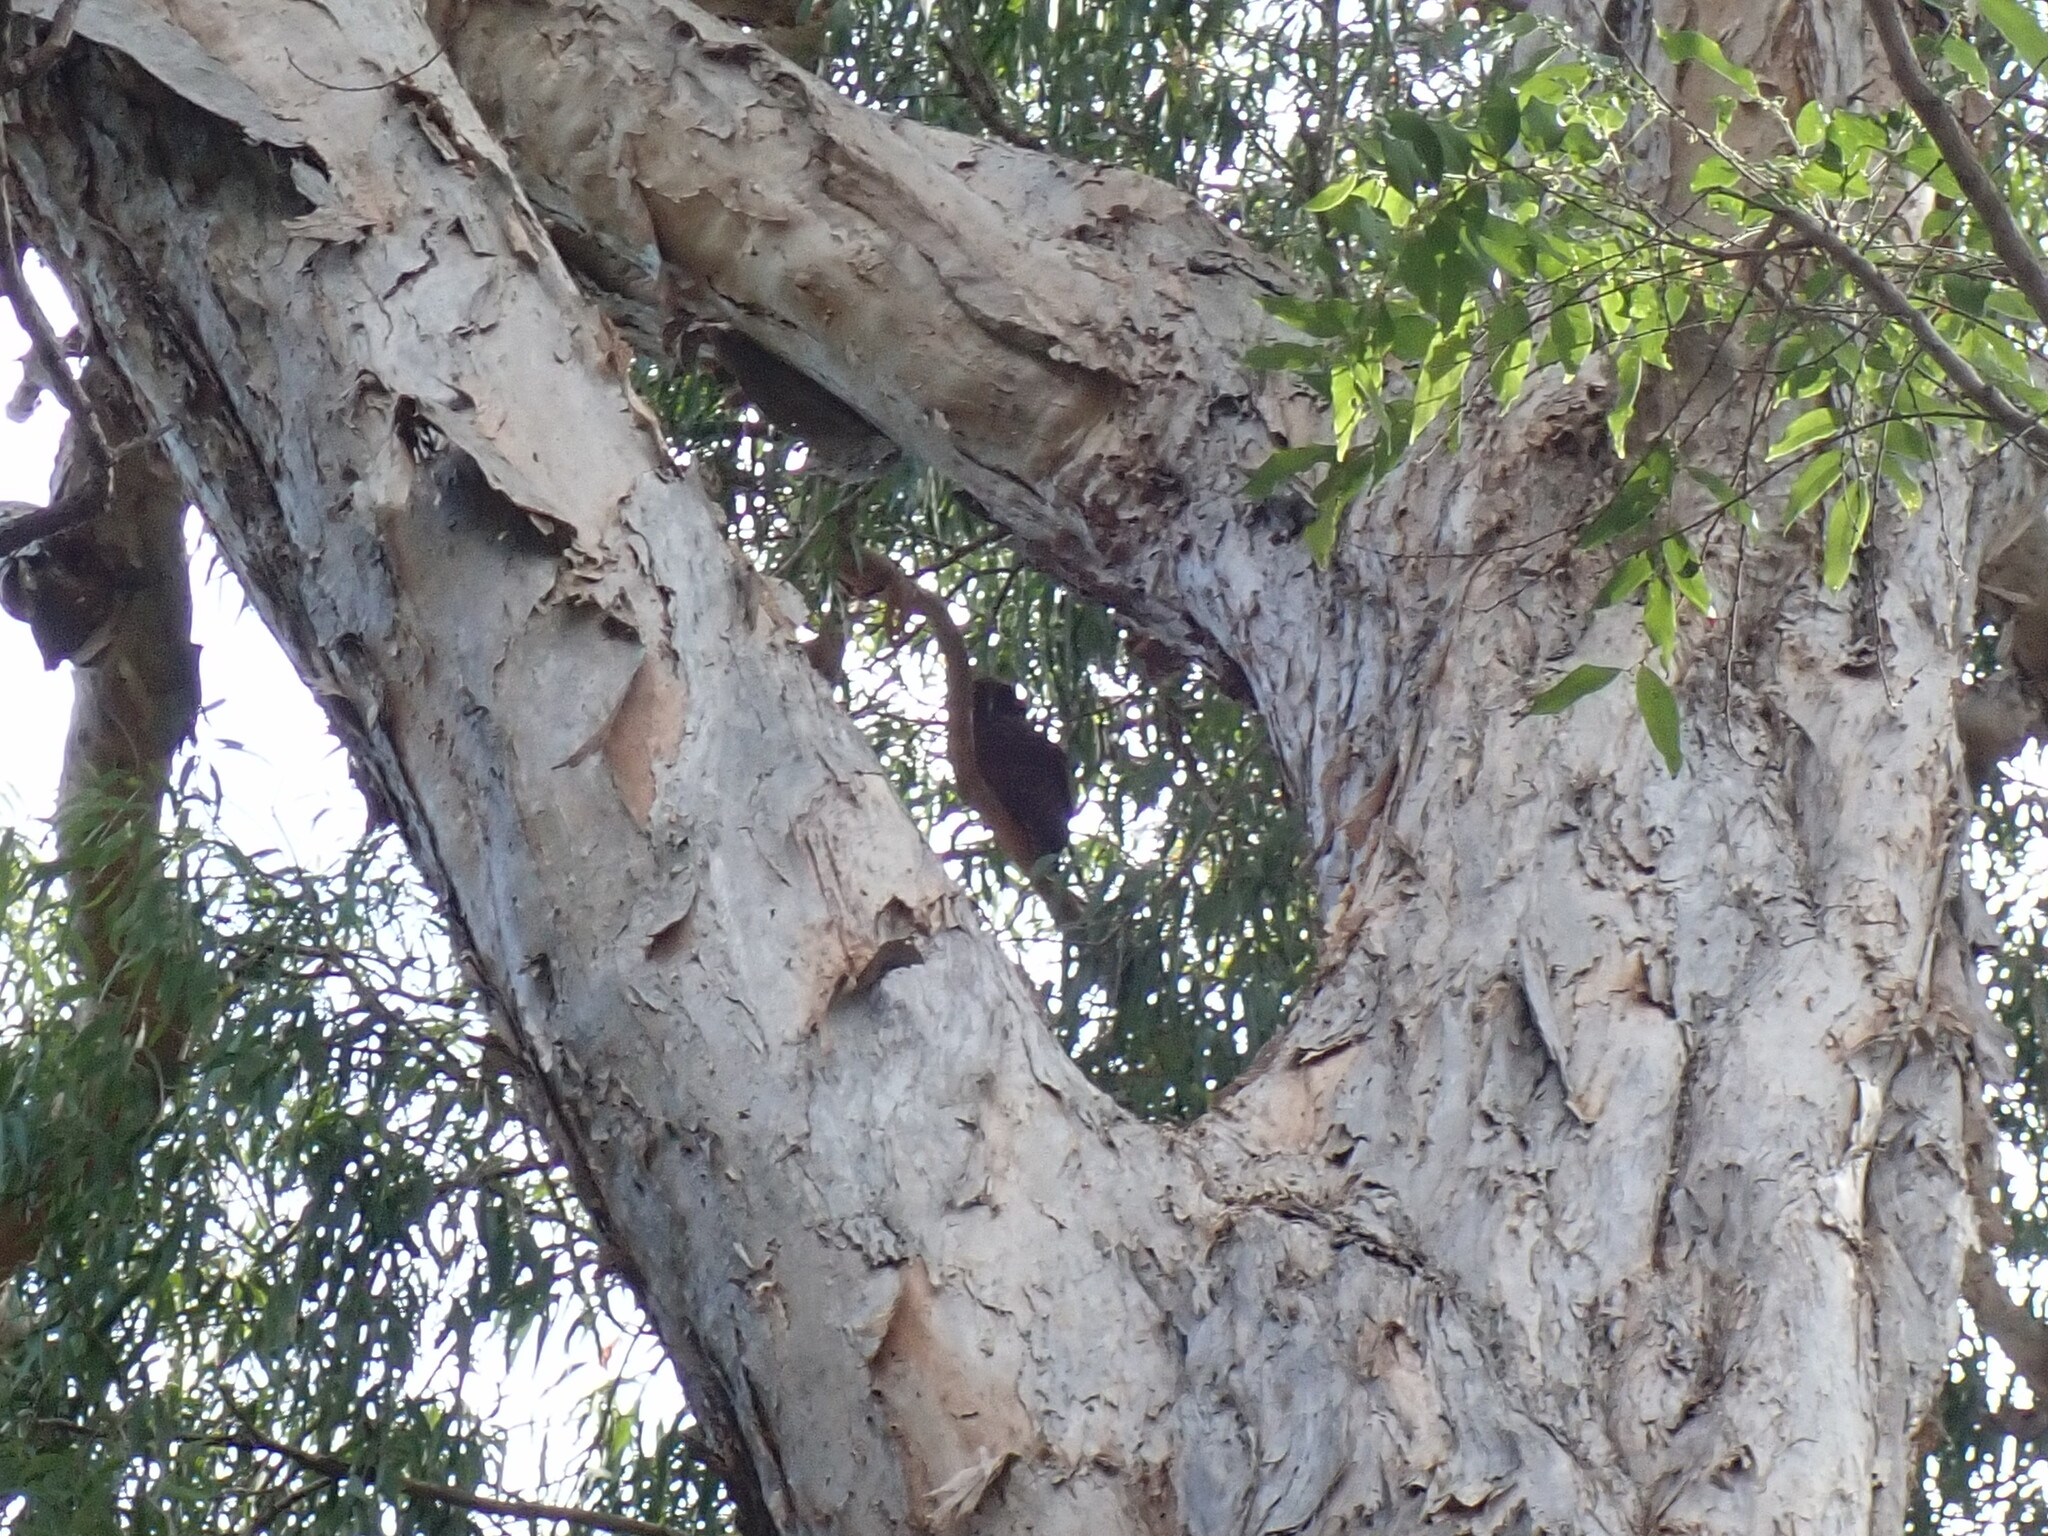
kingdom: Animalia
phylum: Chordata
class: Aves
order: Strigiformes
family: Strigidae
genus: Ninox
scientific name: Ninox rufa
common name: Rufous owl
